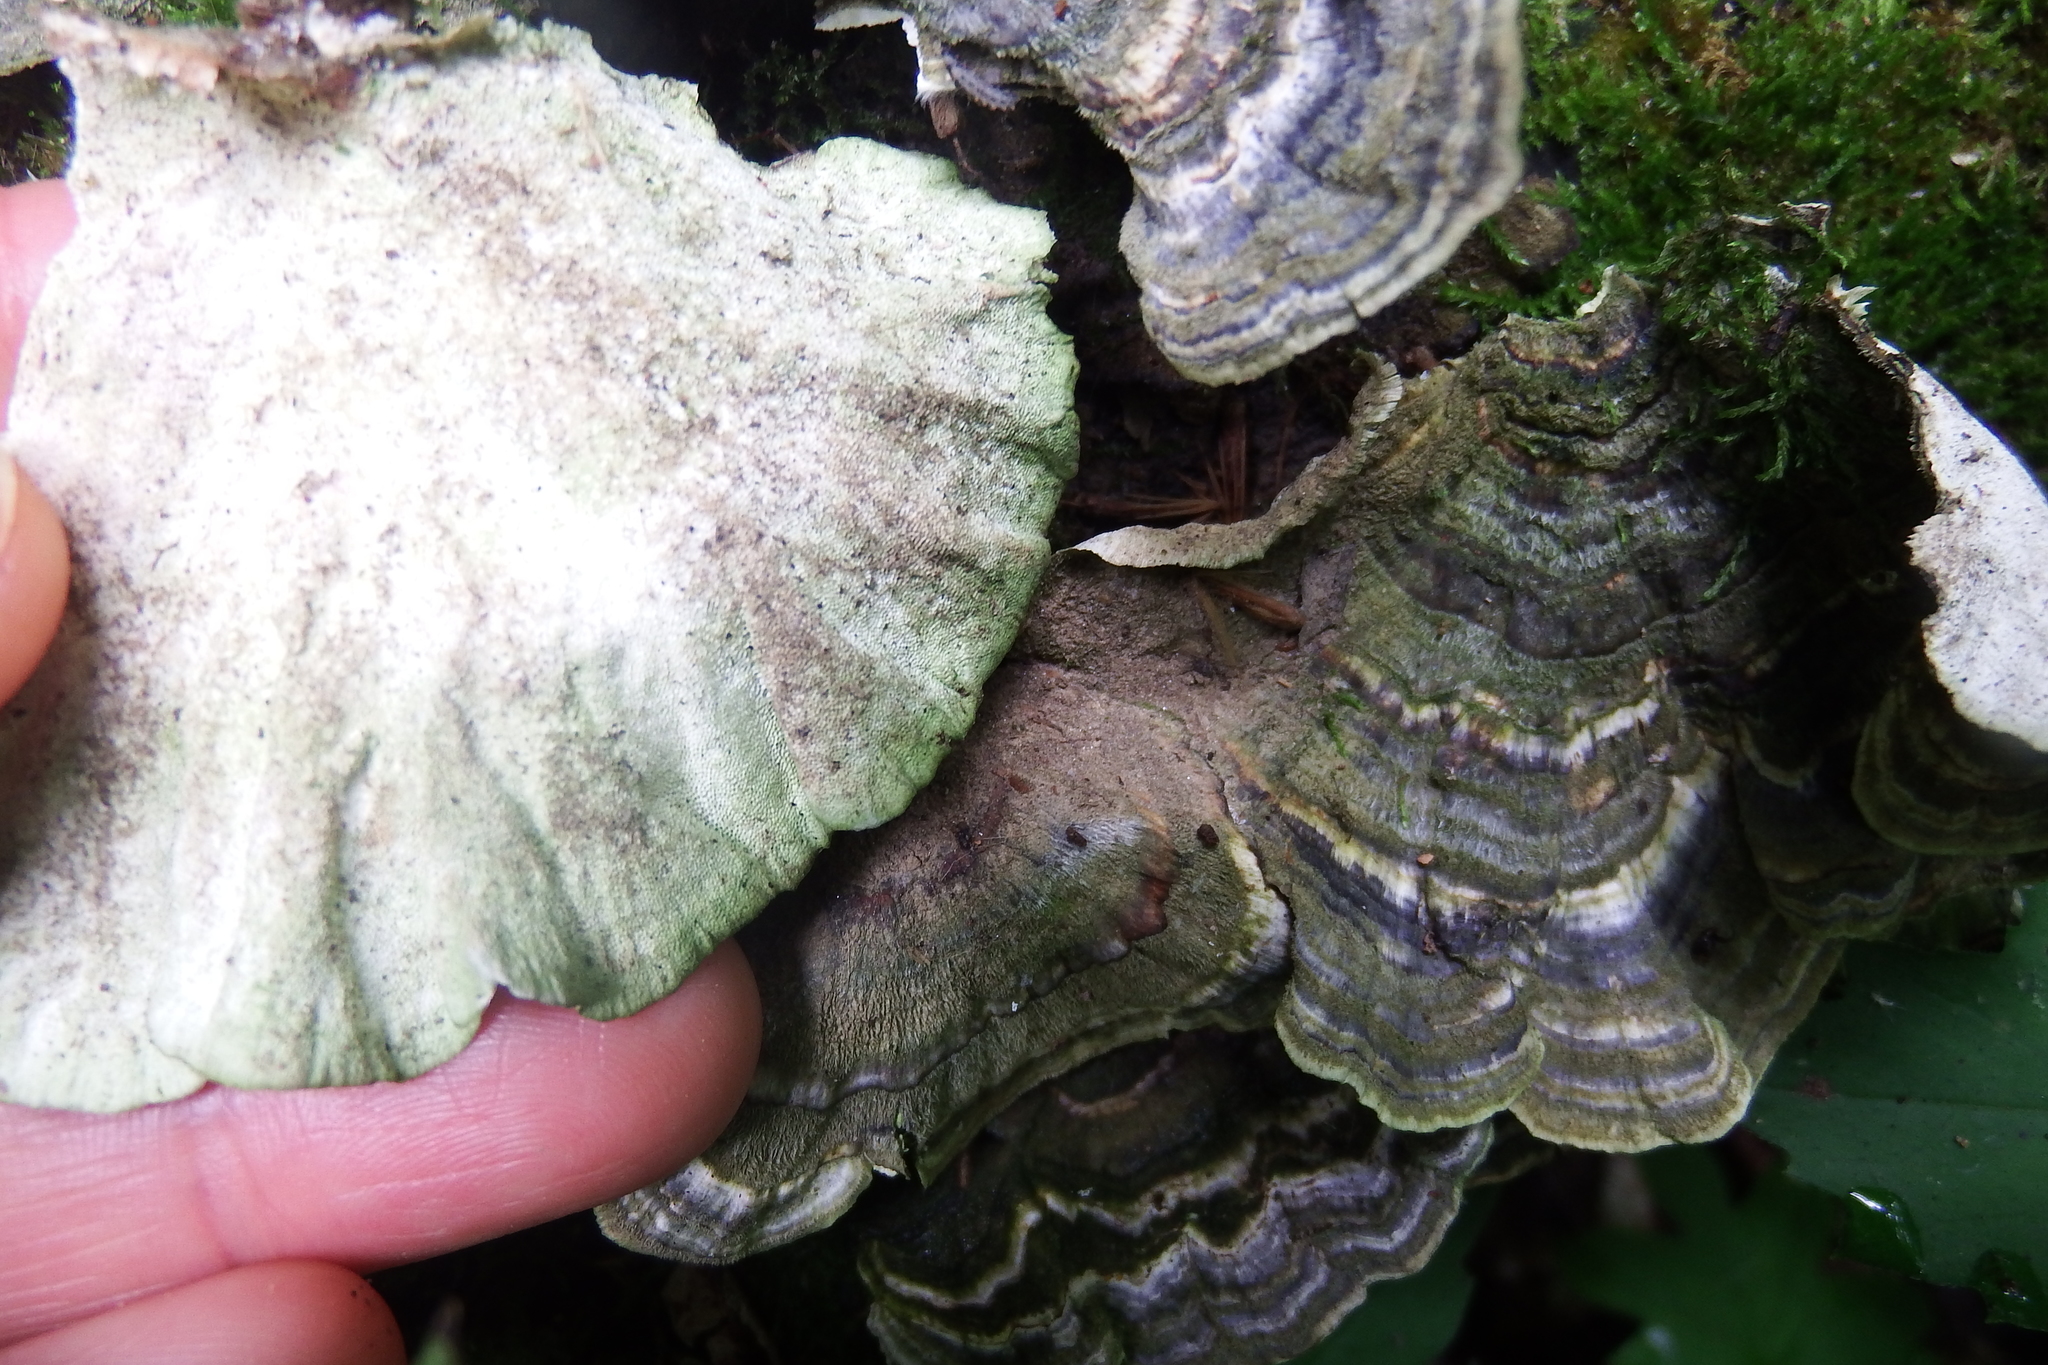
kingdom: Fungi
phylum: Basidiomycota
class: Agaricomycetes
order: Polyporales
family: Polyporaceae
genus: Trametes
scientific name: Trametes versicolor
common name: Turkeytail
